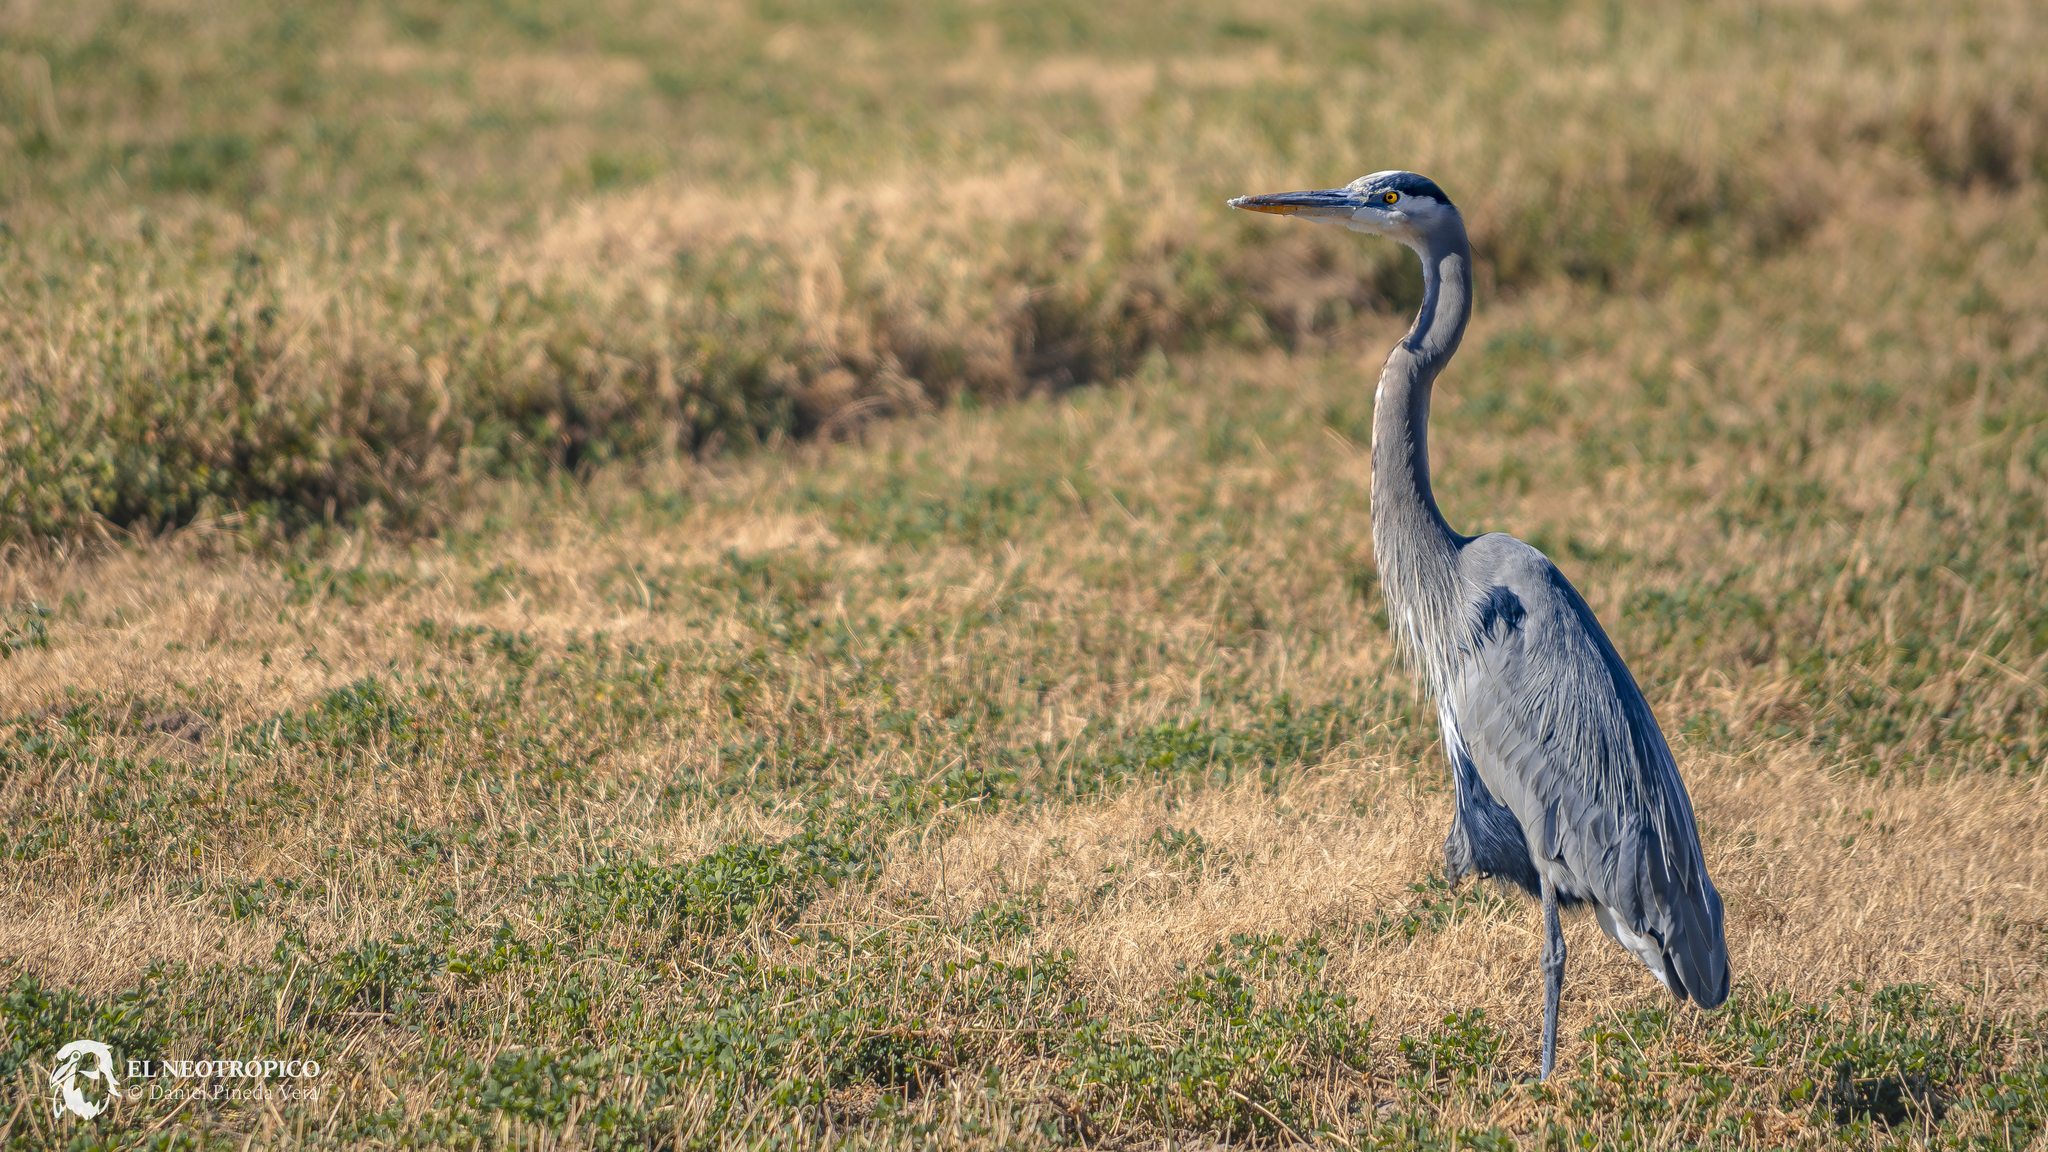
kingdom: Animalia
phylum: Chordata
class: Aves
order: Pelecaniformes
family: Ardeidae
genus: Ardea
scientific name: Ardea herodias
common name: Great blue heron
